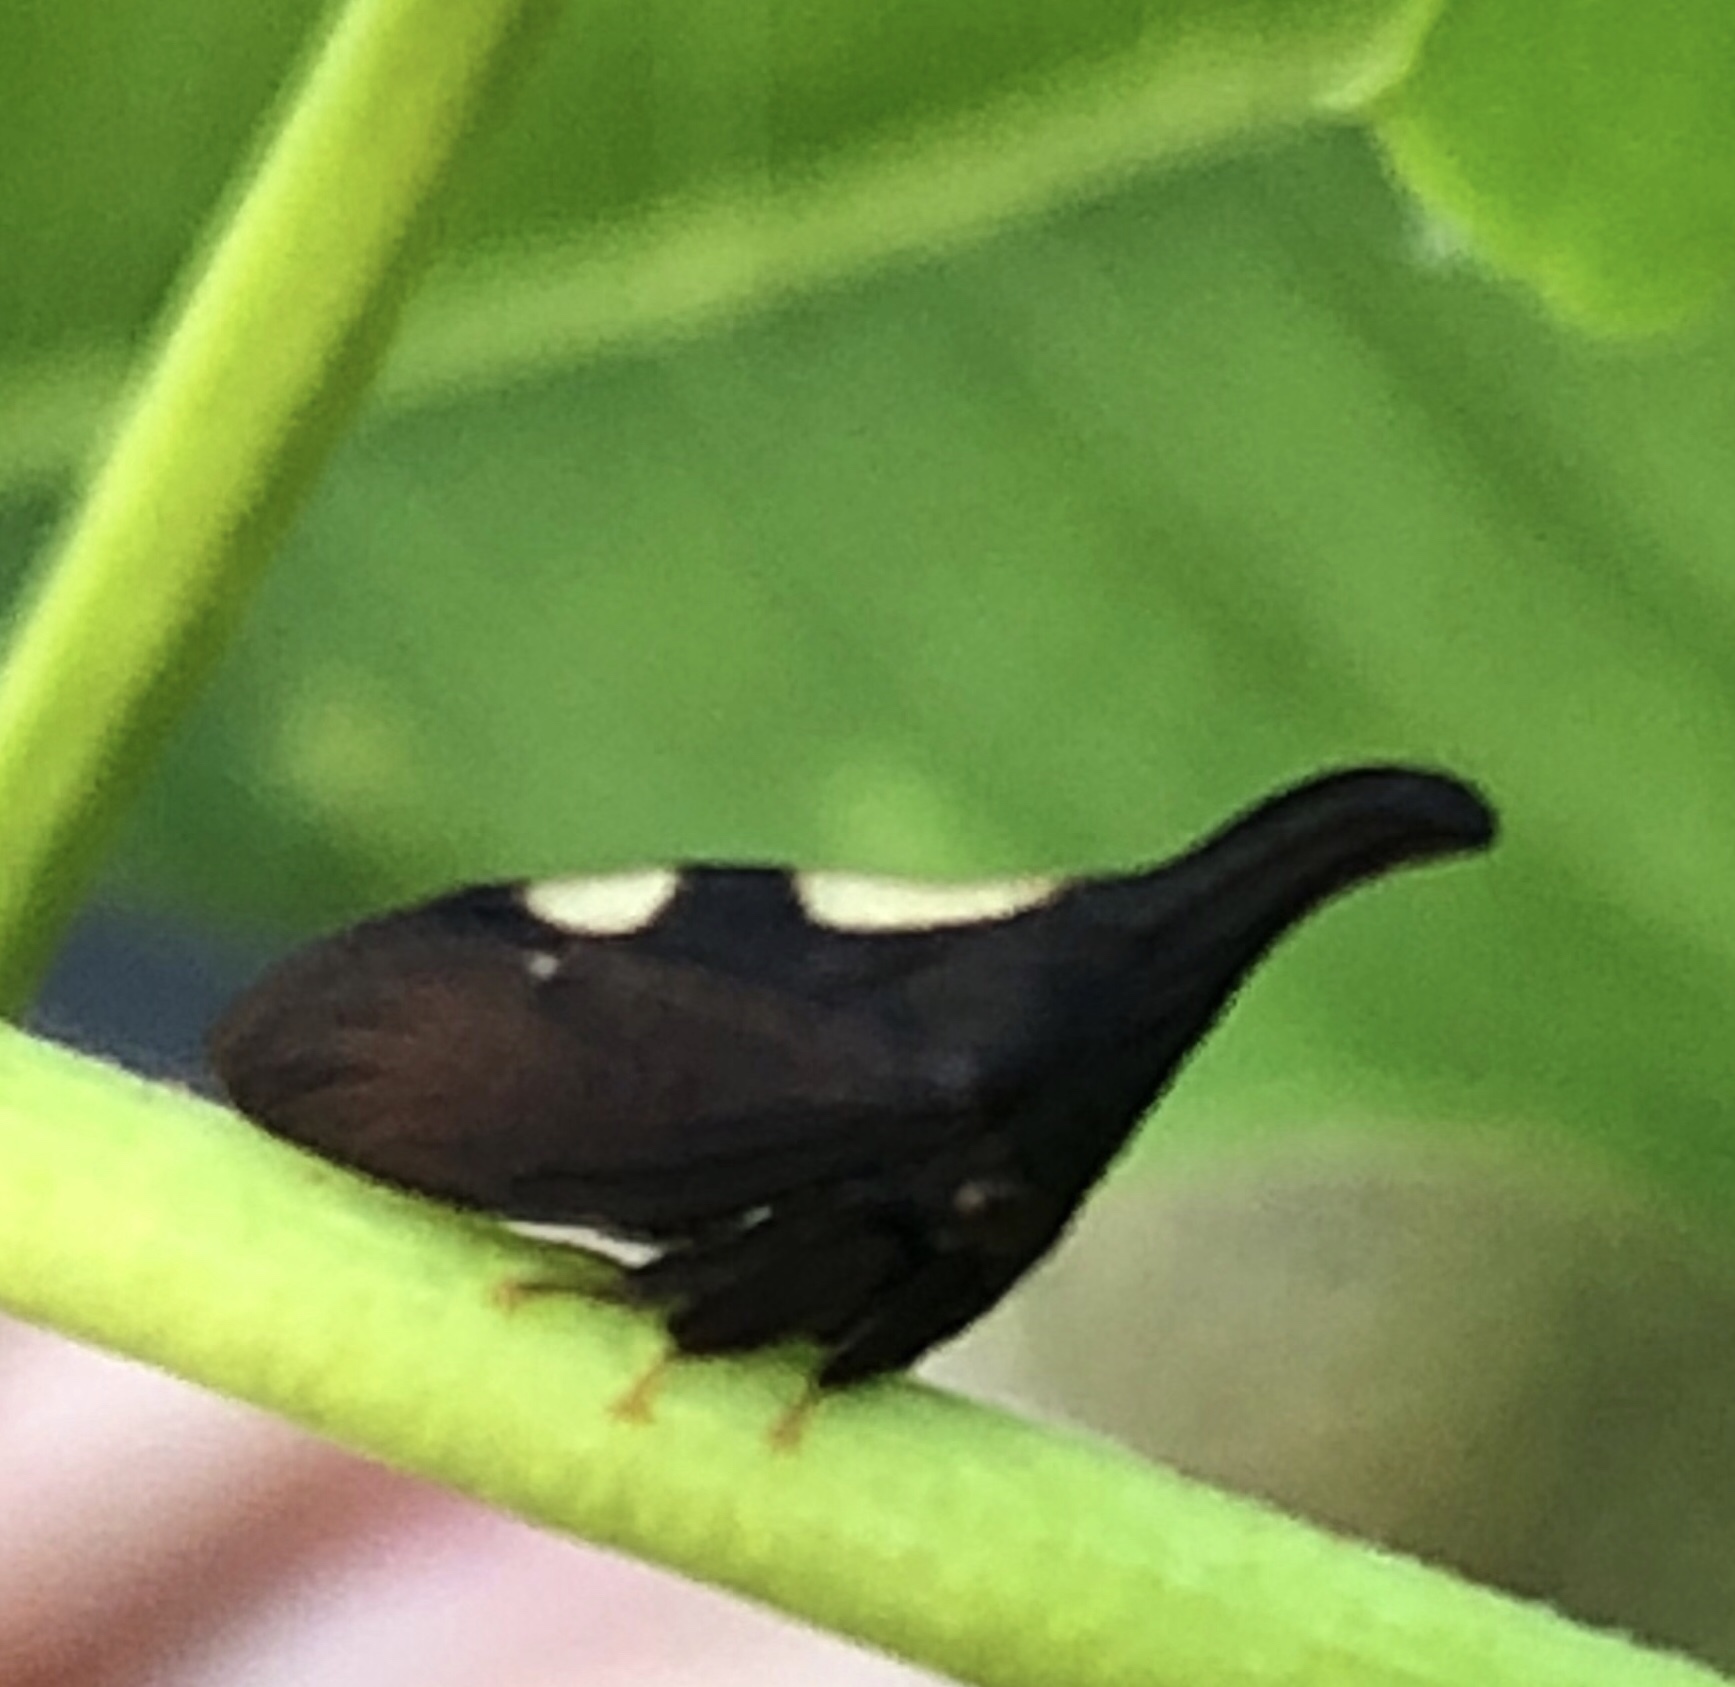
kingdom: Animalia
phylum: Arthropoda
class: Insecta
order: Hemiptera
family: Membracidae
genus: Enchenopa
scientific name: Enchenopa
